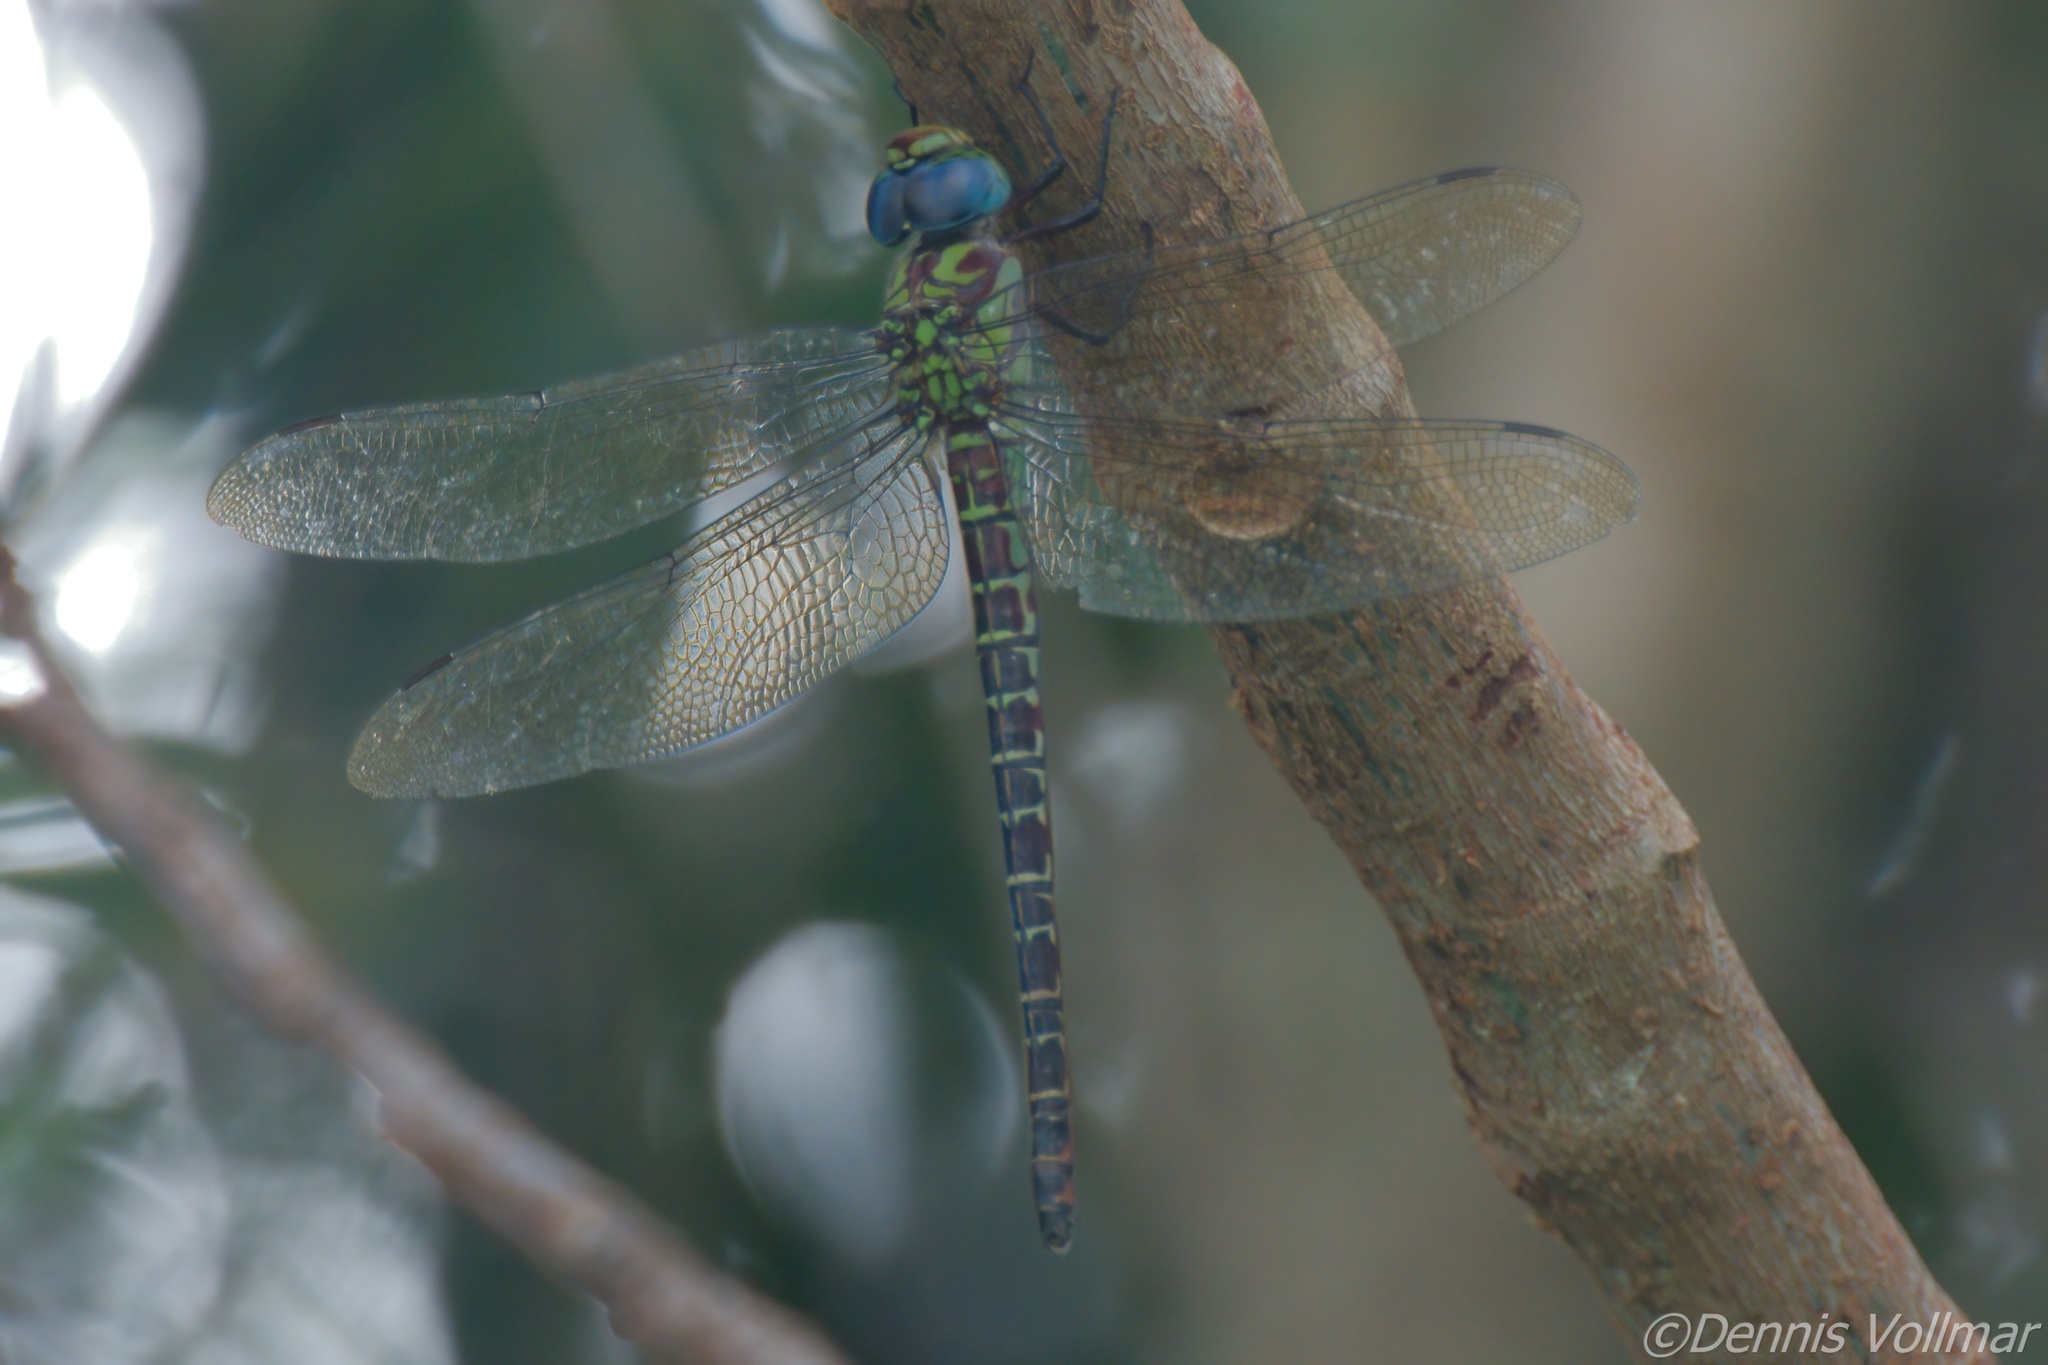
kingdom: Animalia
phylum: Arthropoda
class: Insecta
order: Odonata
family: Aeshnidae
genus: Coryphaeschna
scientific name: Coryphaeschna ingens
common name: Regal darner
